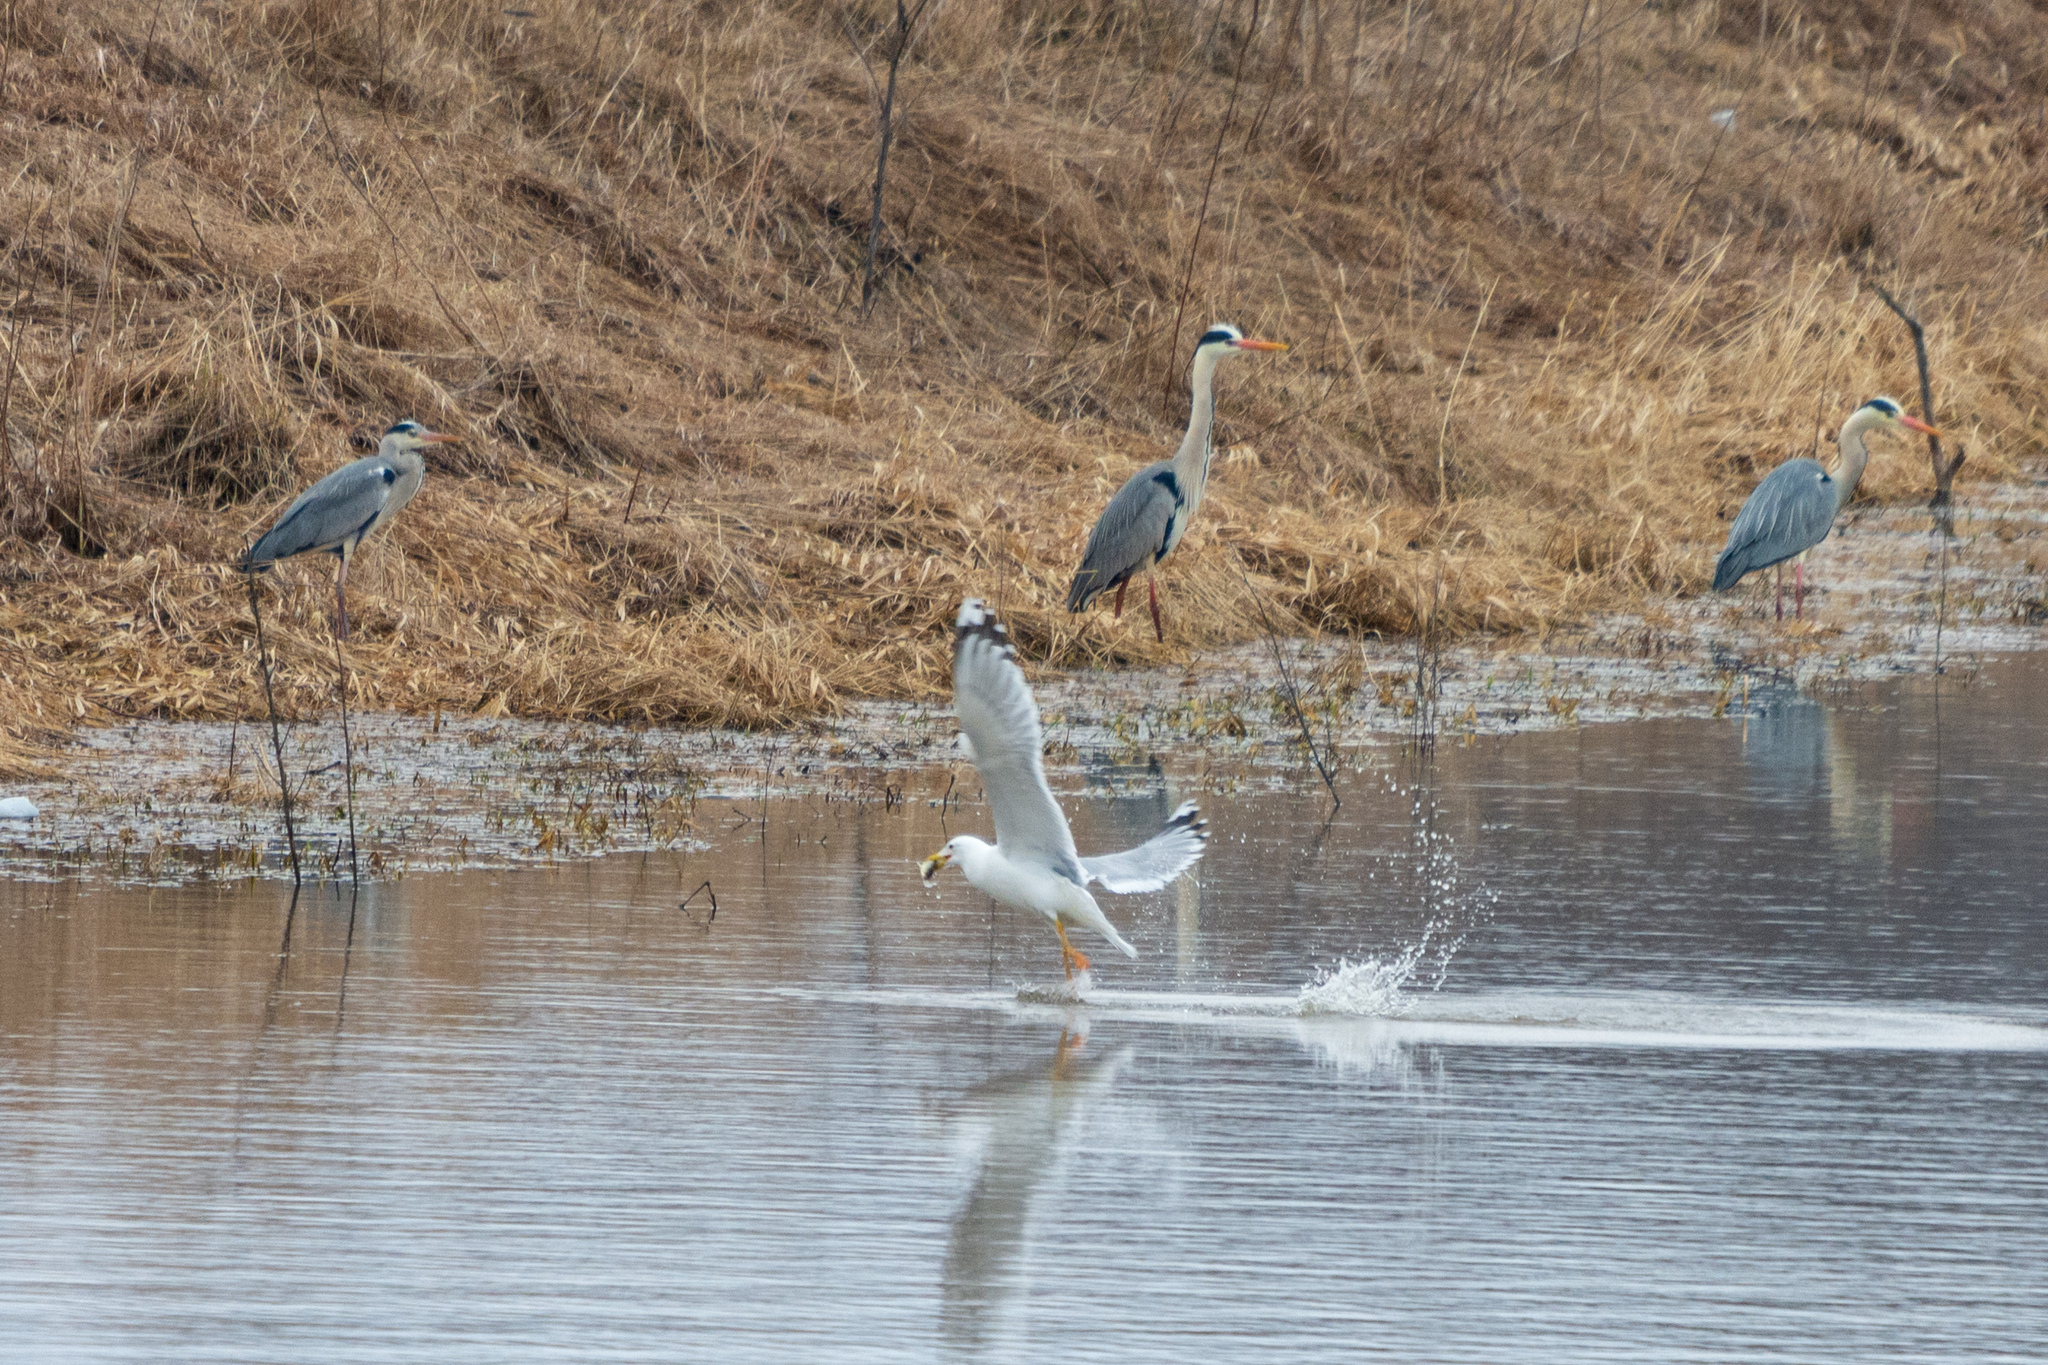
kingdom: Animalia
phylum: Chordata
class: Aves
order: Pelecaniformes
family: Ardeidae
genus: Ardea
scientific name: Ardea cinerea
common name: Grey heron
